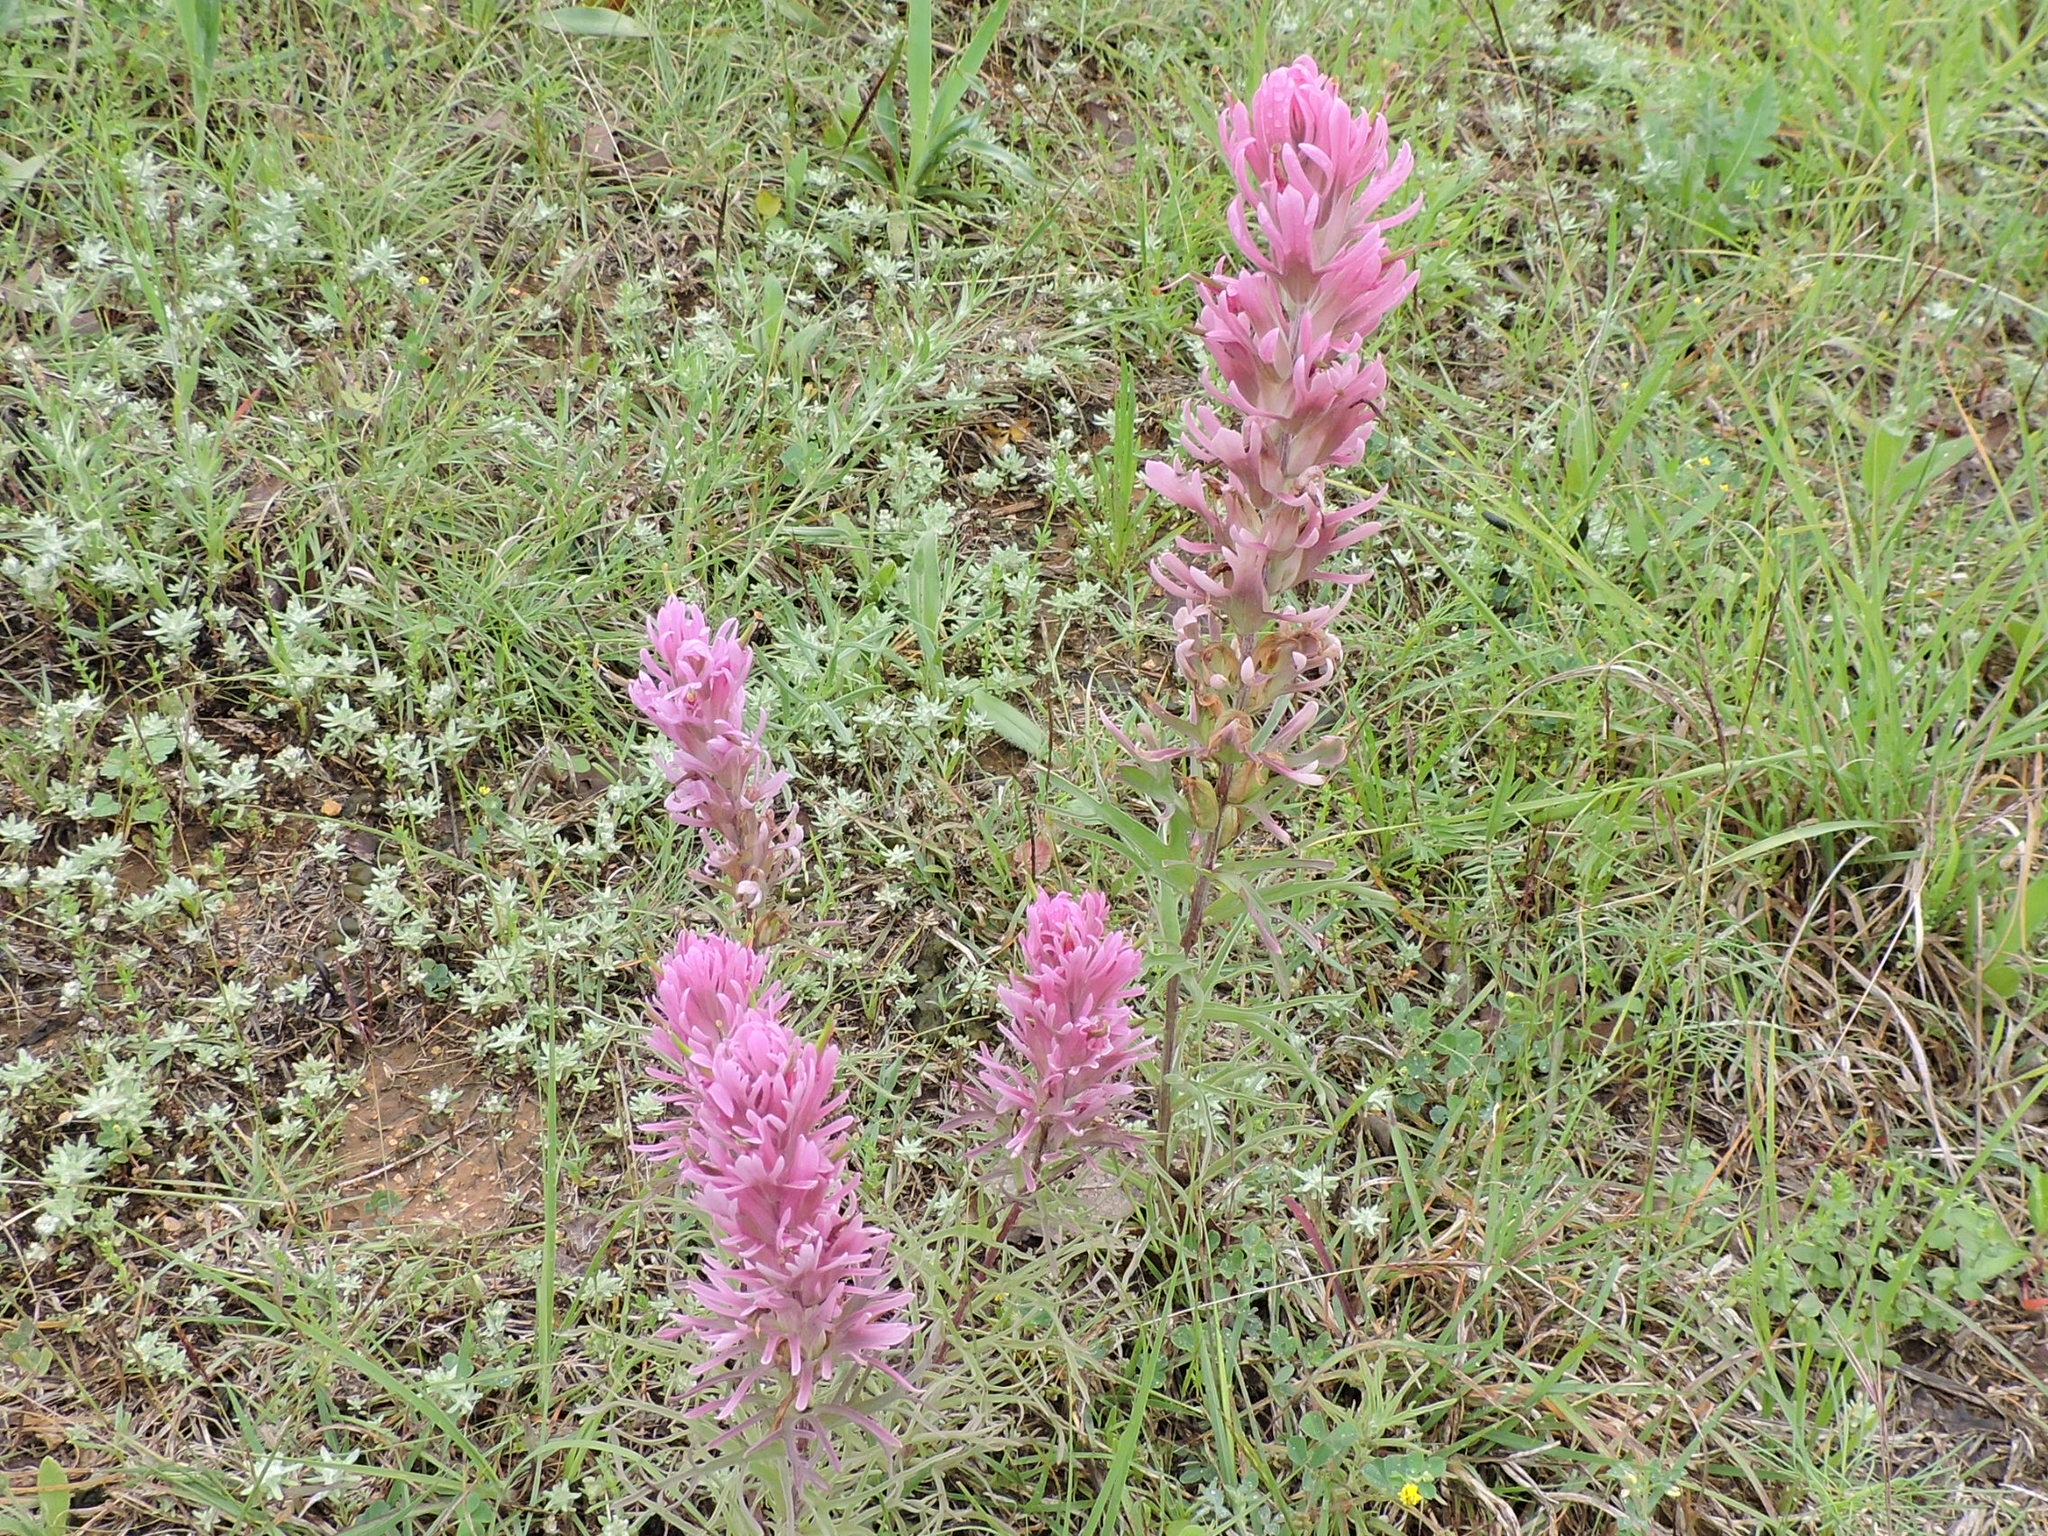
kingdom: Plantae
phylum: Tracheophyta
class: Magnoliopsida
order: Lamiales
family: Orobanchaceae
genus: Castilleja
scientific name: Castilleja purpurea
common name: Plains paintbrush
